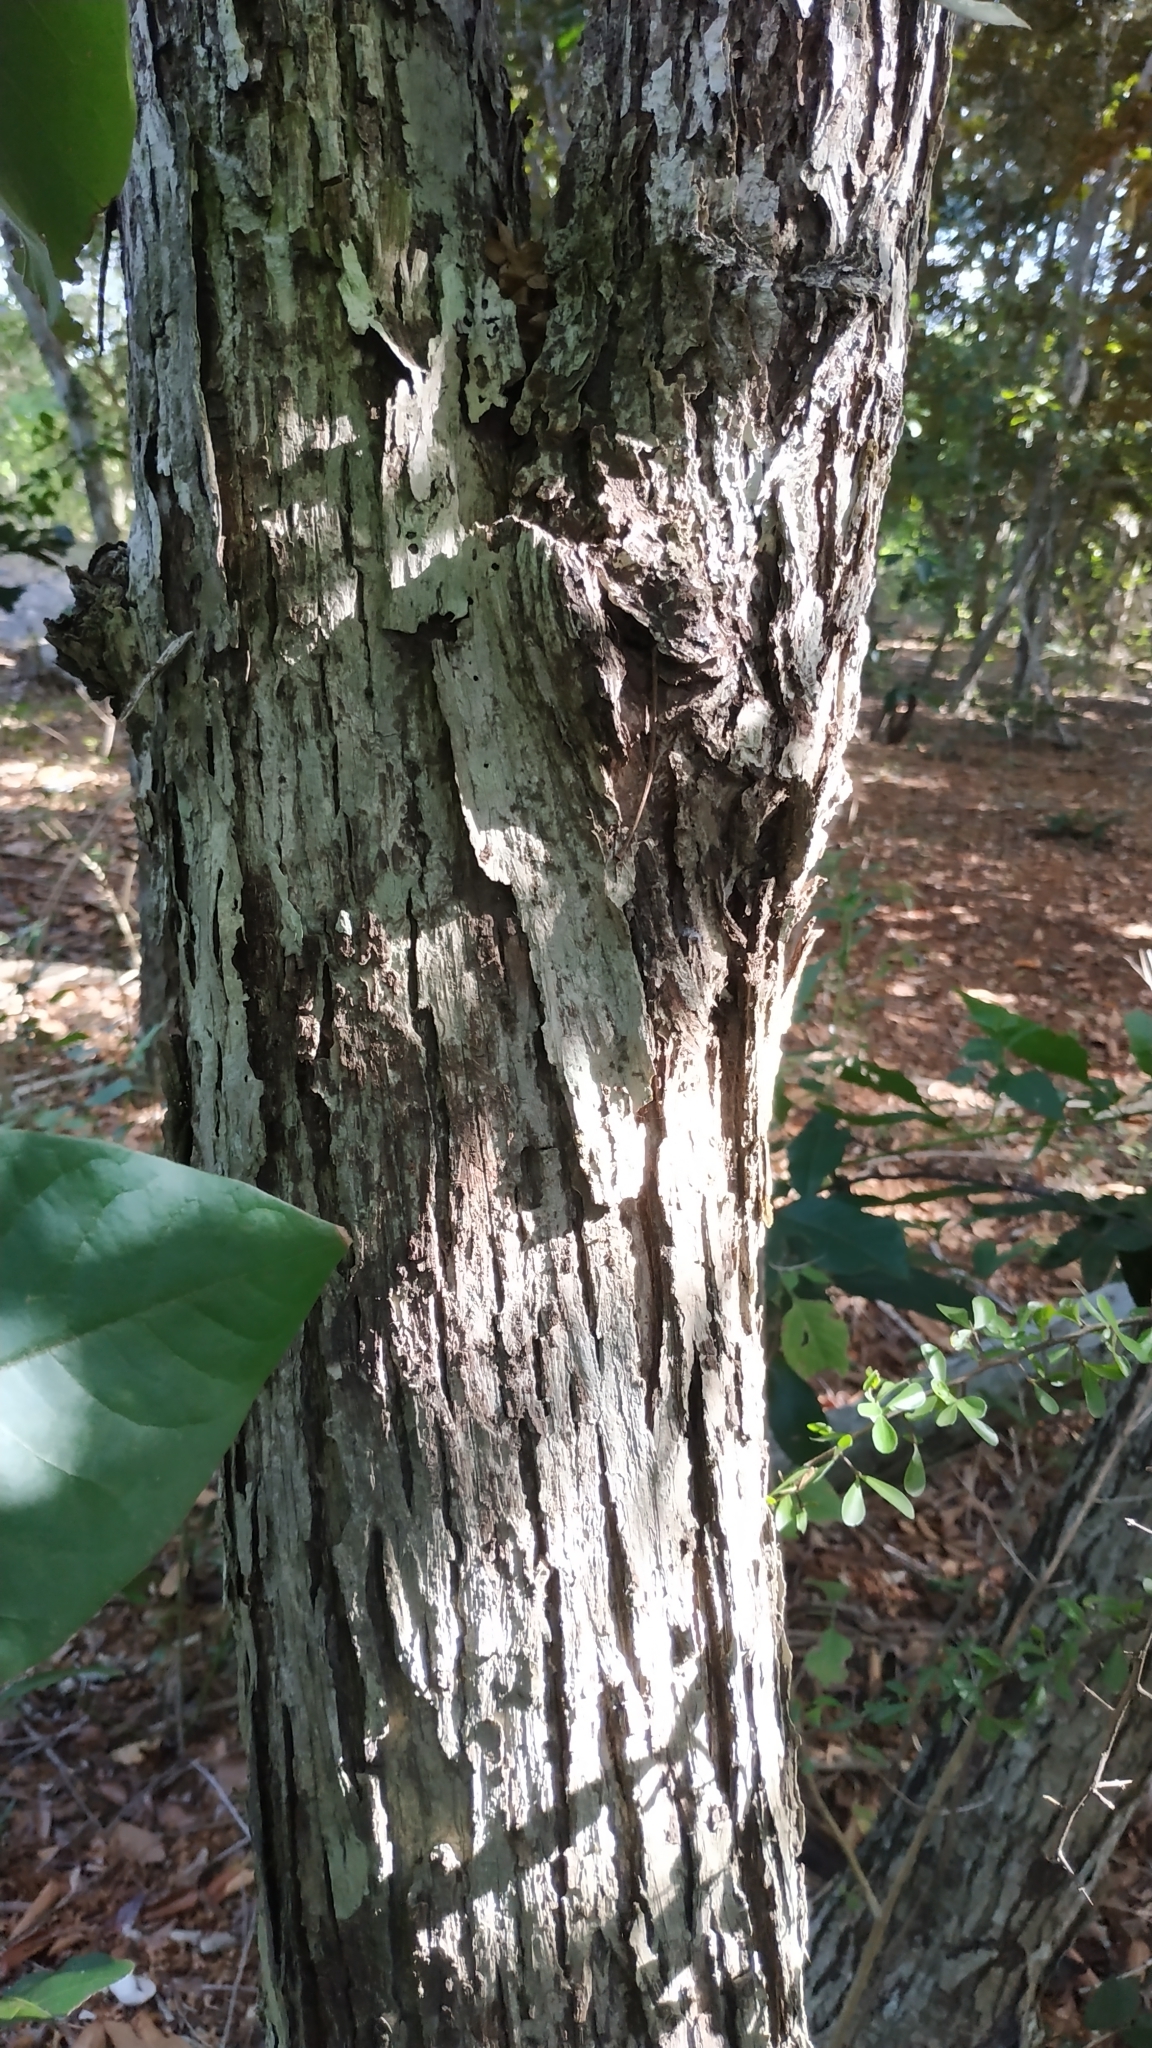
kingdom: Plantae
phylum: Tracheophyta
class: Magnoliopsida
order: Malvales
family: Malvaceae
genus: Schoutenia
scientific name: Schoutenia ovata
